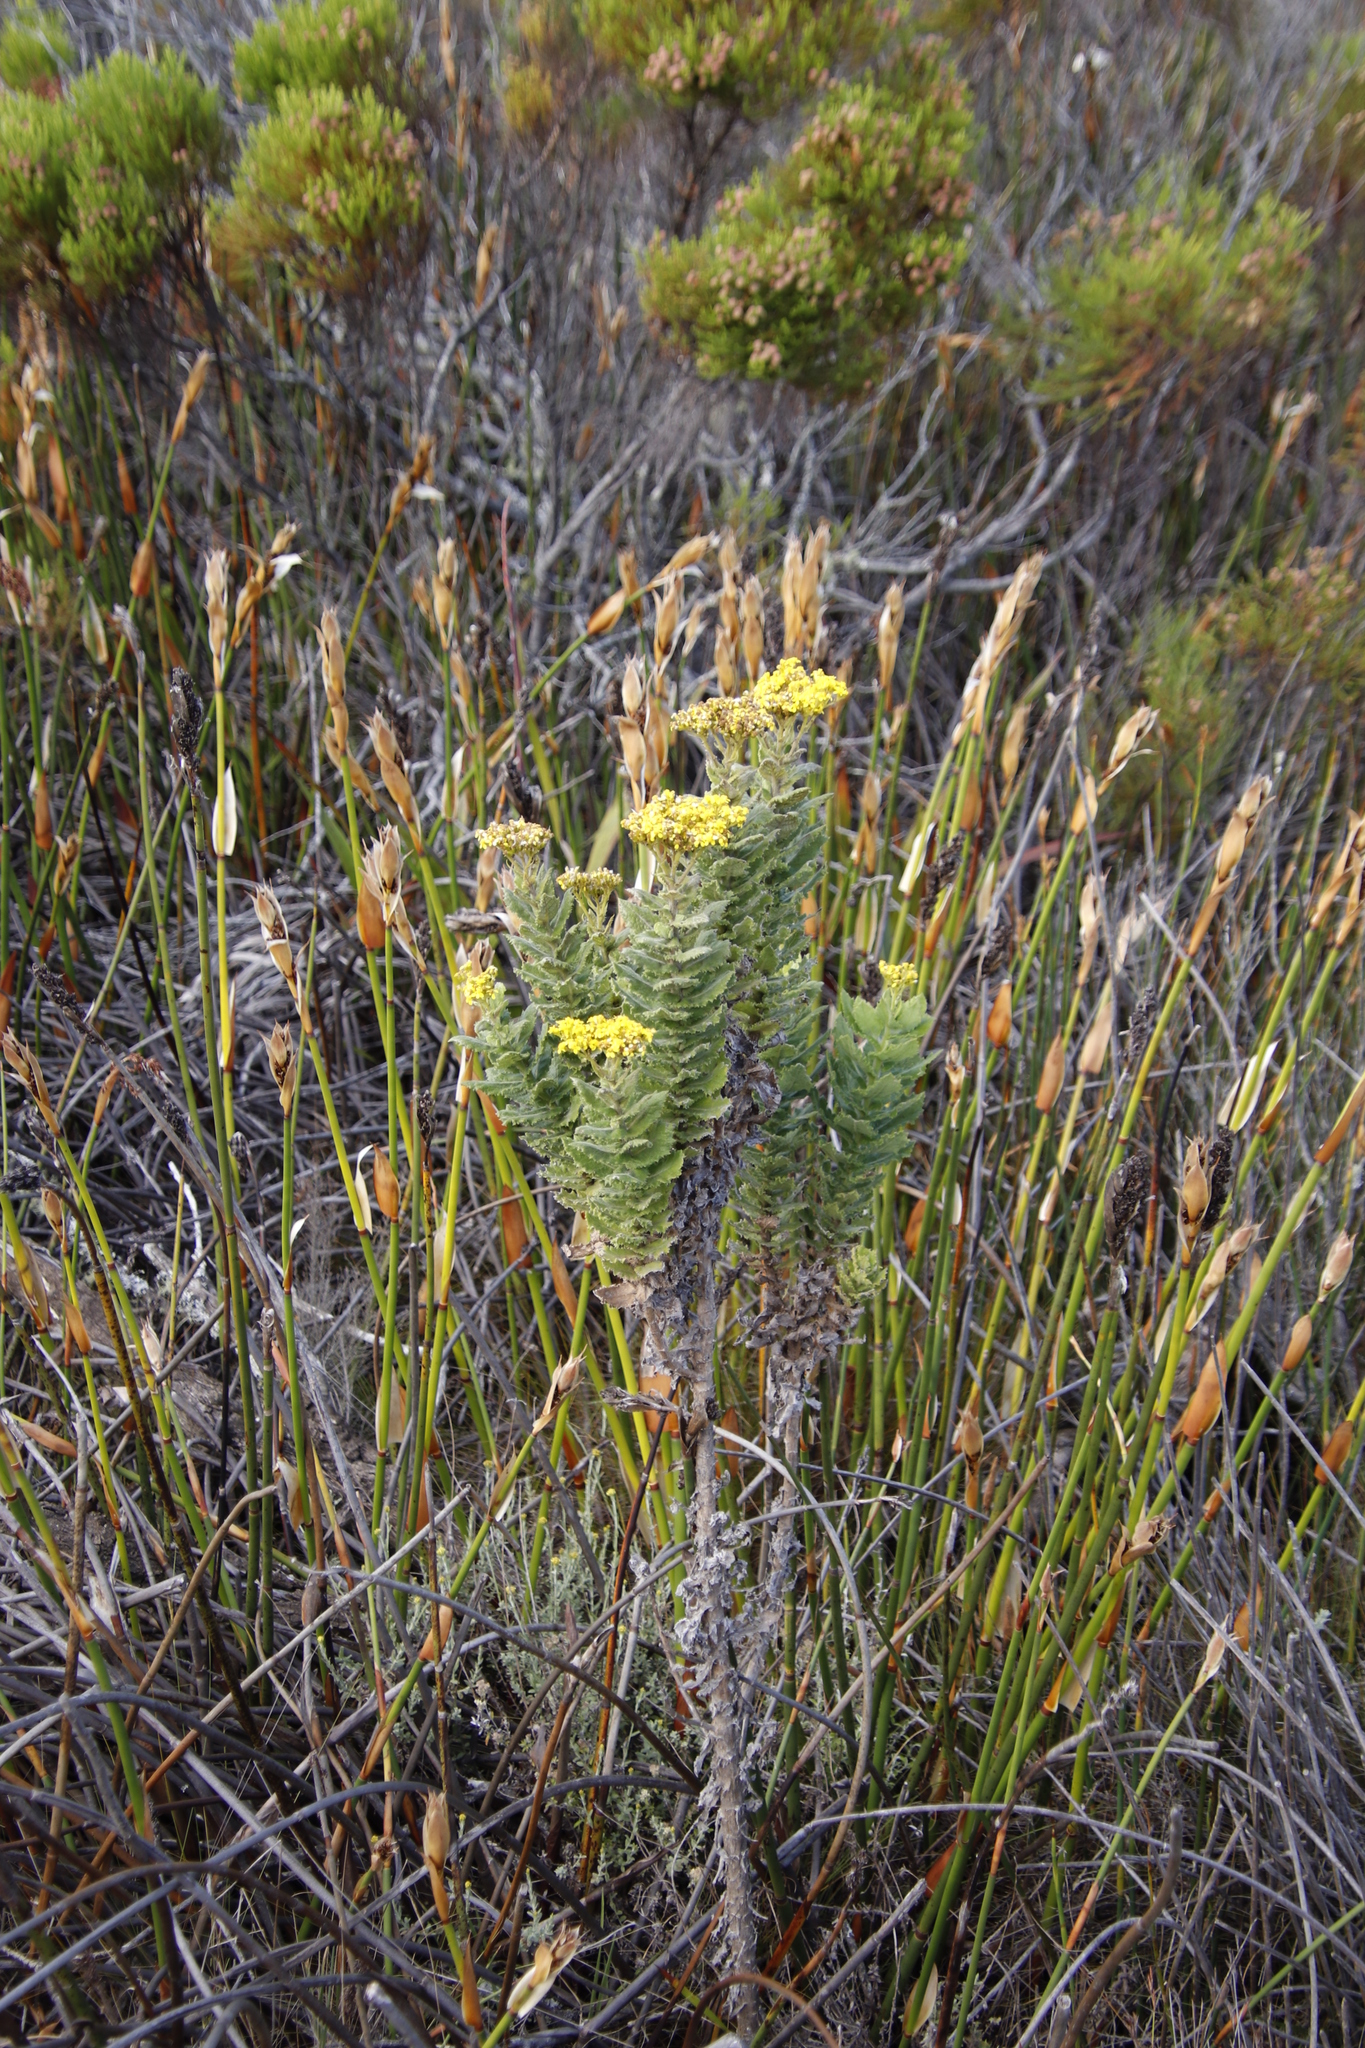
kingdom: Plantae
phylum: Tracheophyta
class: Magnoliopsida
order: Asterales
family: Asteraceae
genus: Senecio
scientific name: Senecio rigidus
